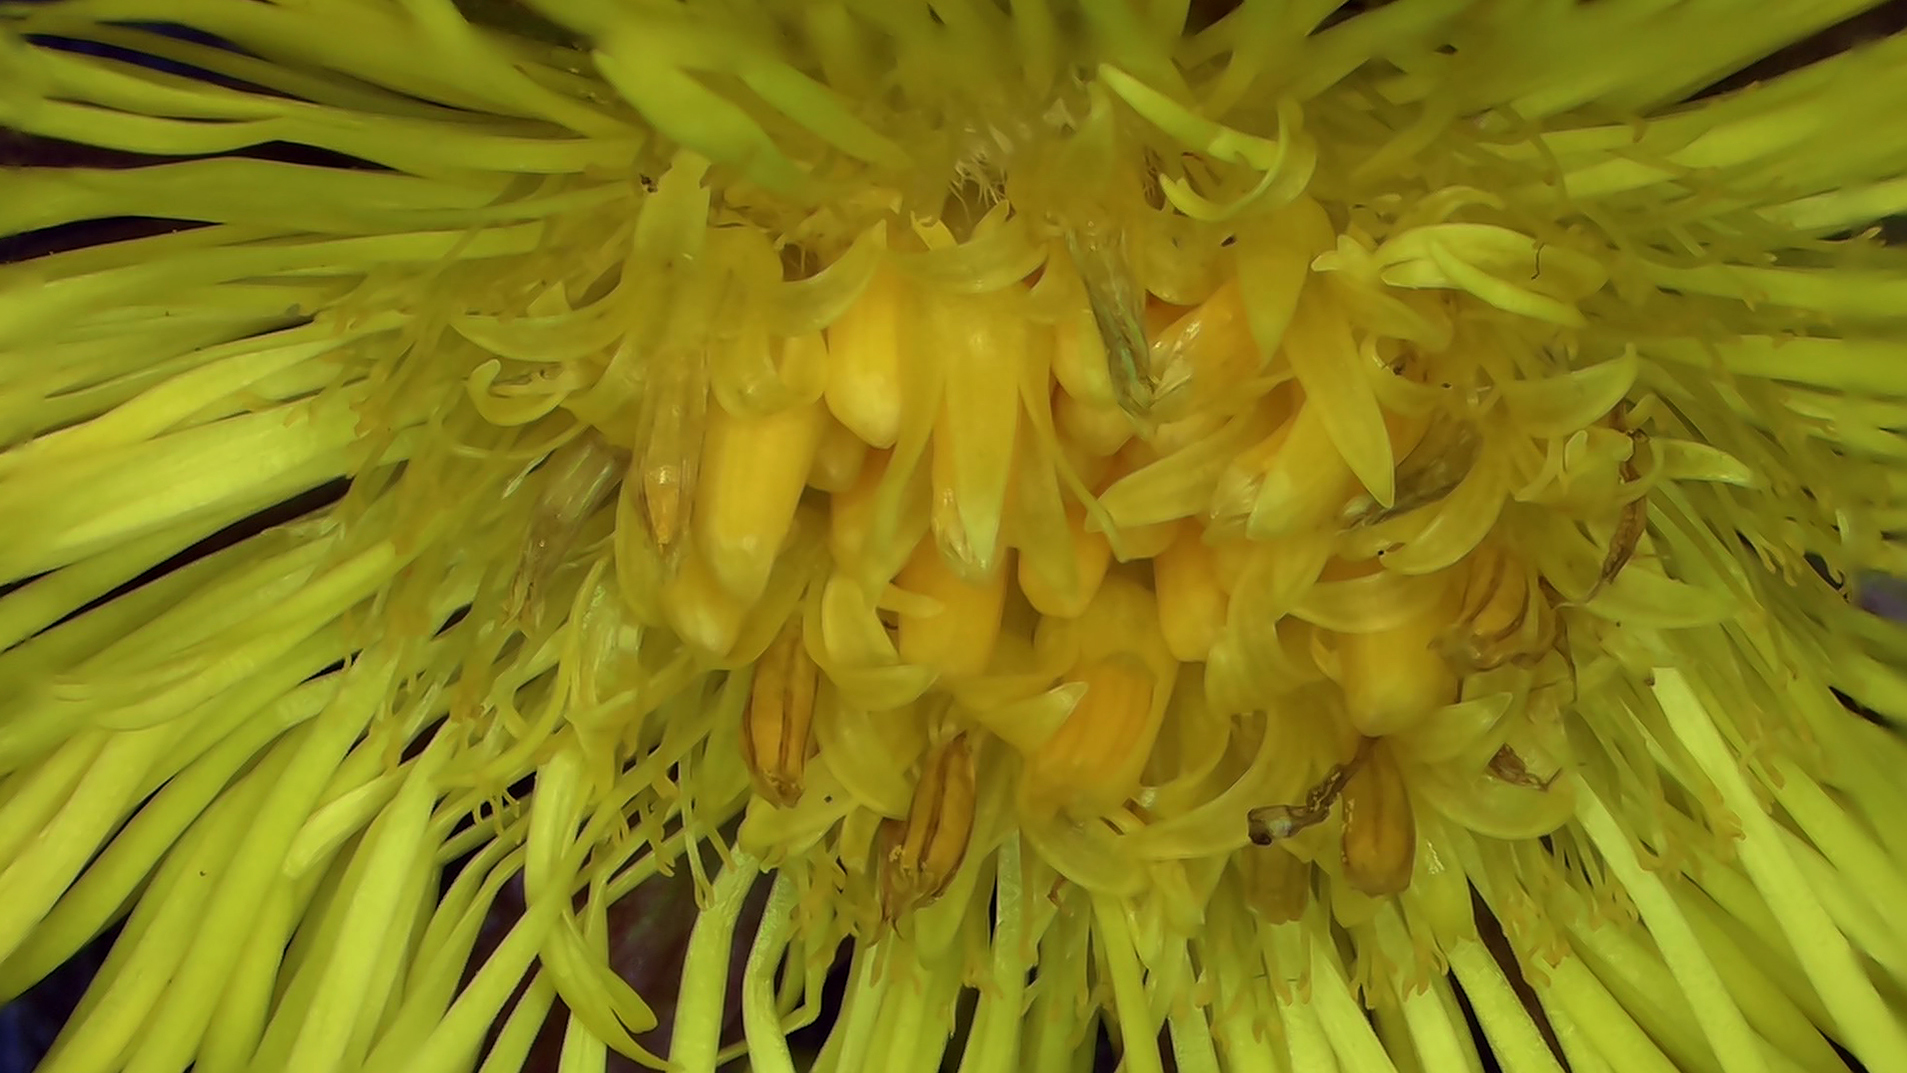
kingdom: Plantae
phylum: Tracheophyta
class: Magnoliopsida
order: Asterales
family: Asteraceae
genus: Tussilago
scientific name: Tussilago farfara
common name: Coltsfoot
